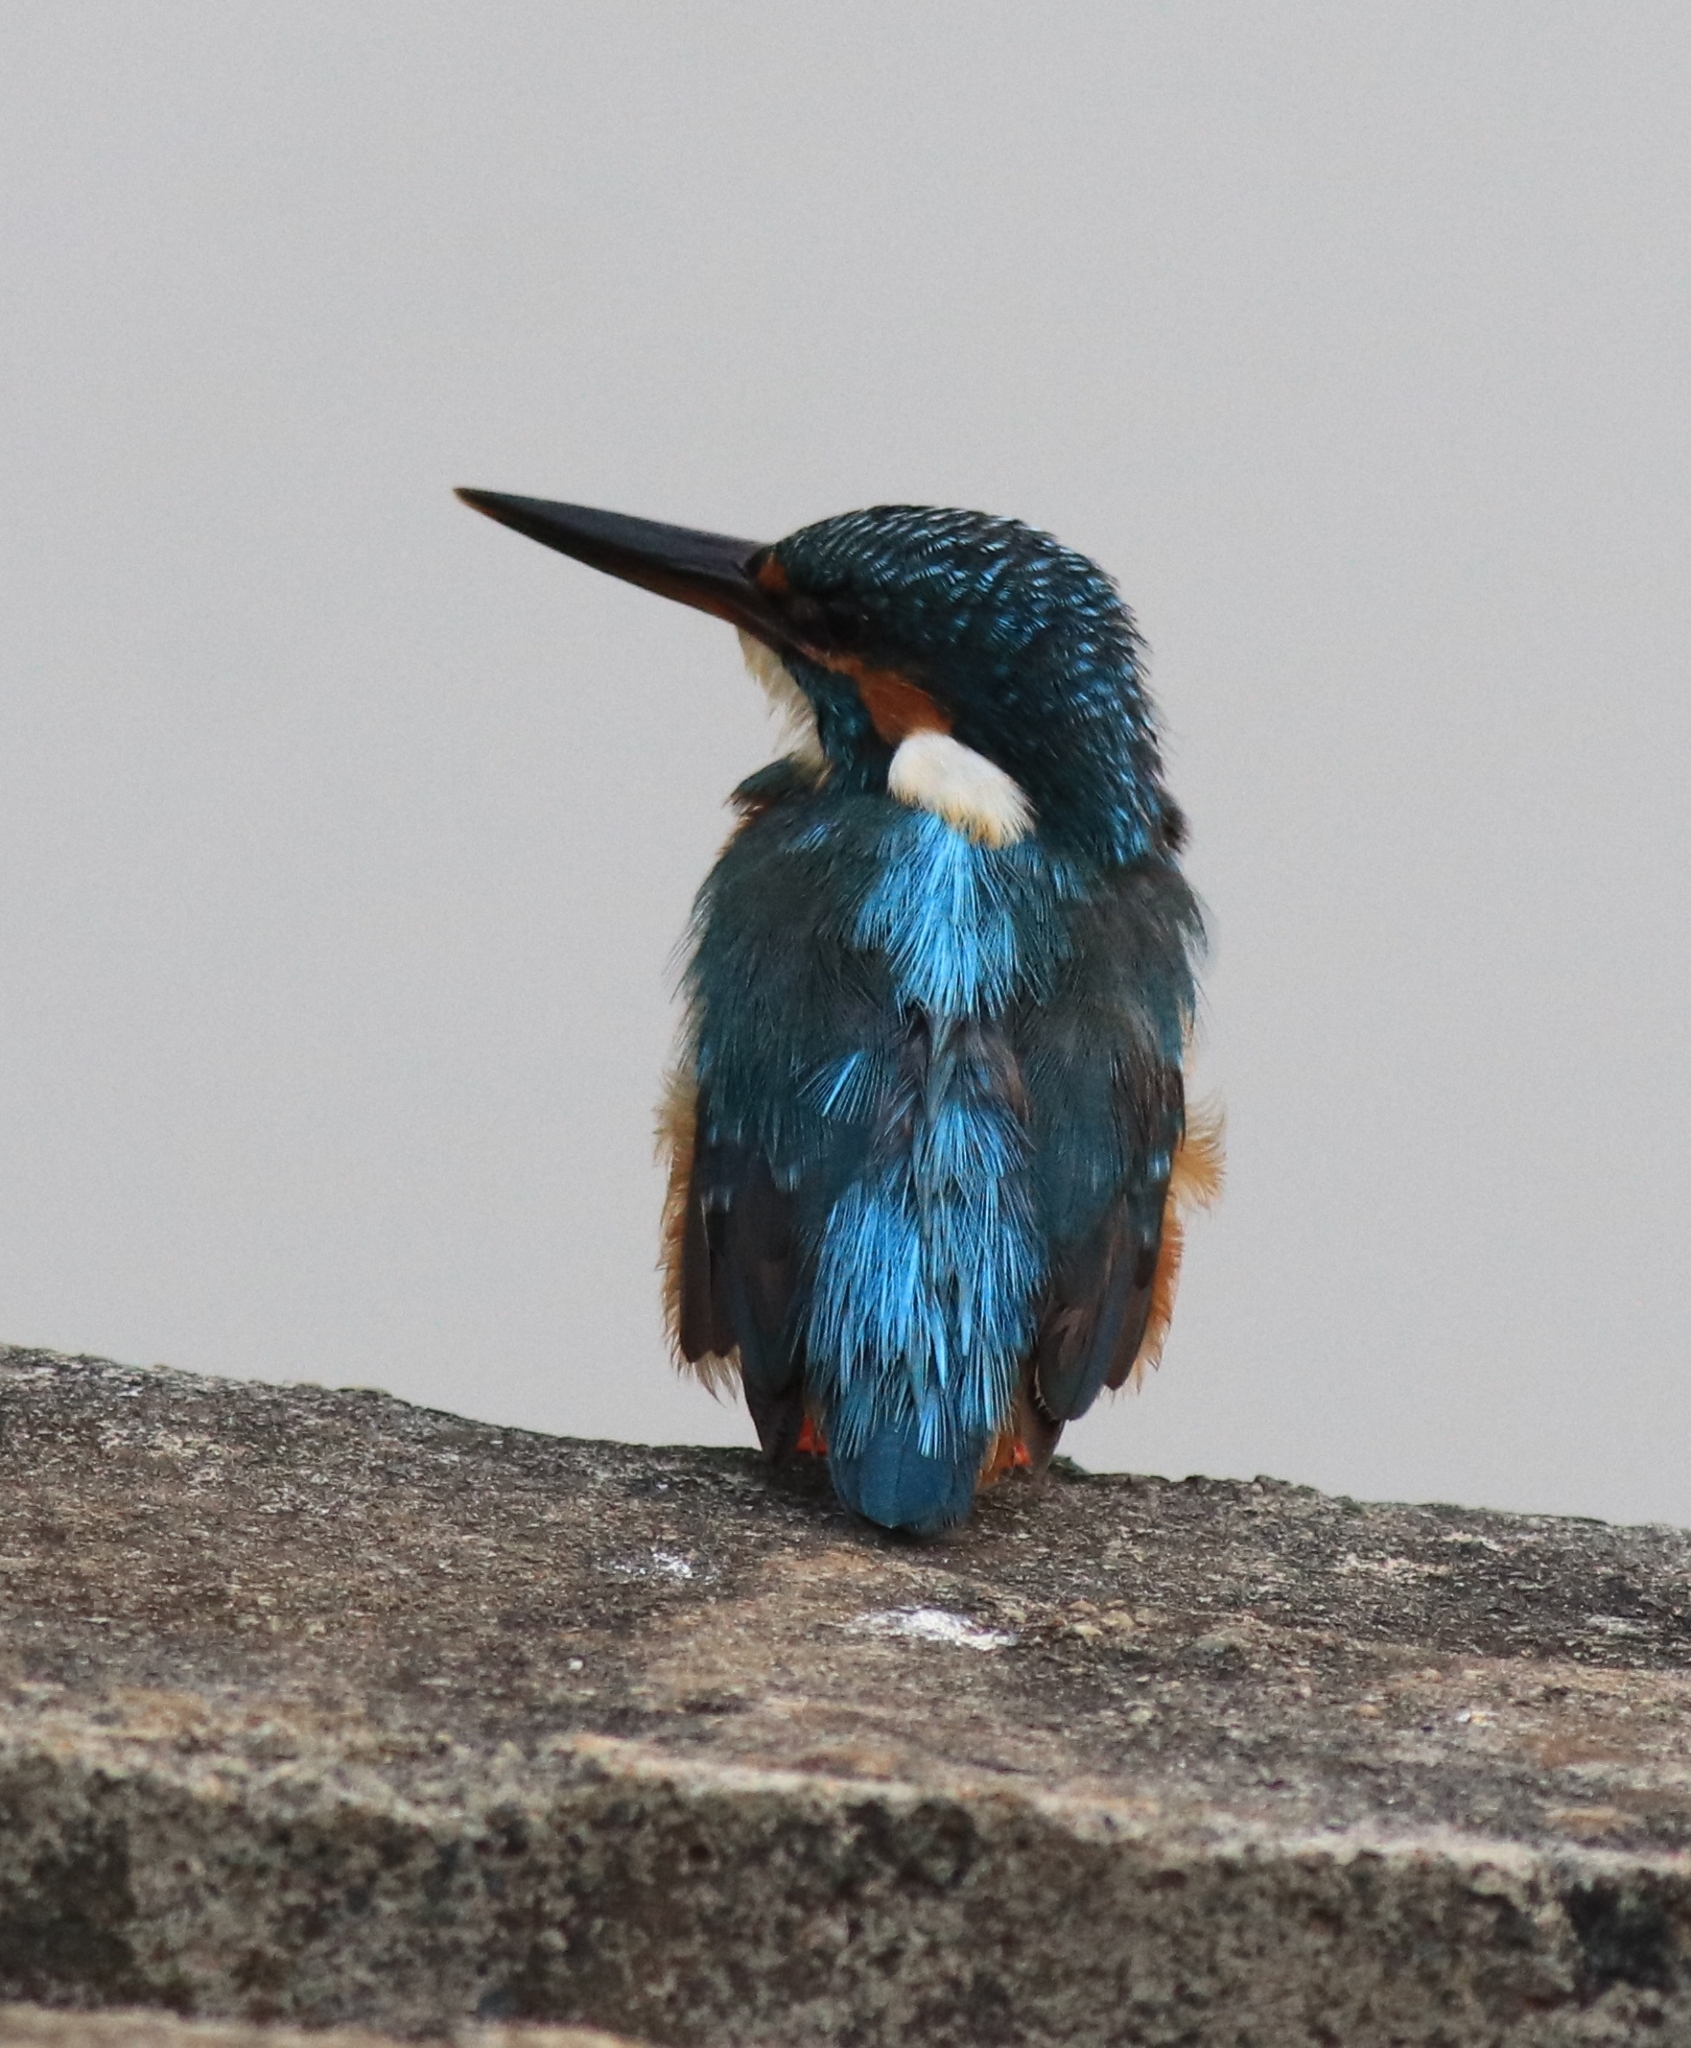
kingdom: Animalia
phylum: Chordata
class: Aves
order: Coraciiformes
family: Alcedinidae
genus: Alcedo
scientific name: Alcedo atthis
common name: Common kingfisher
